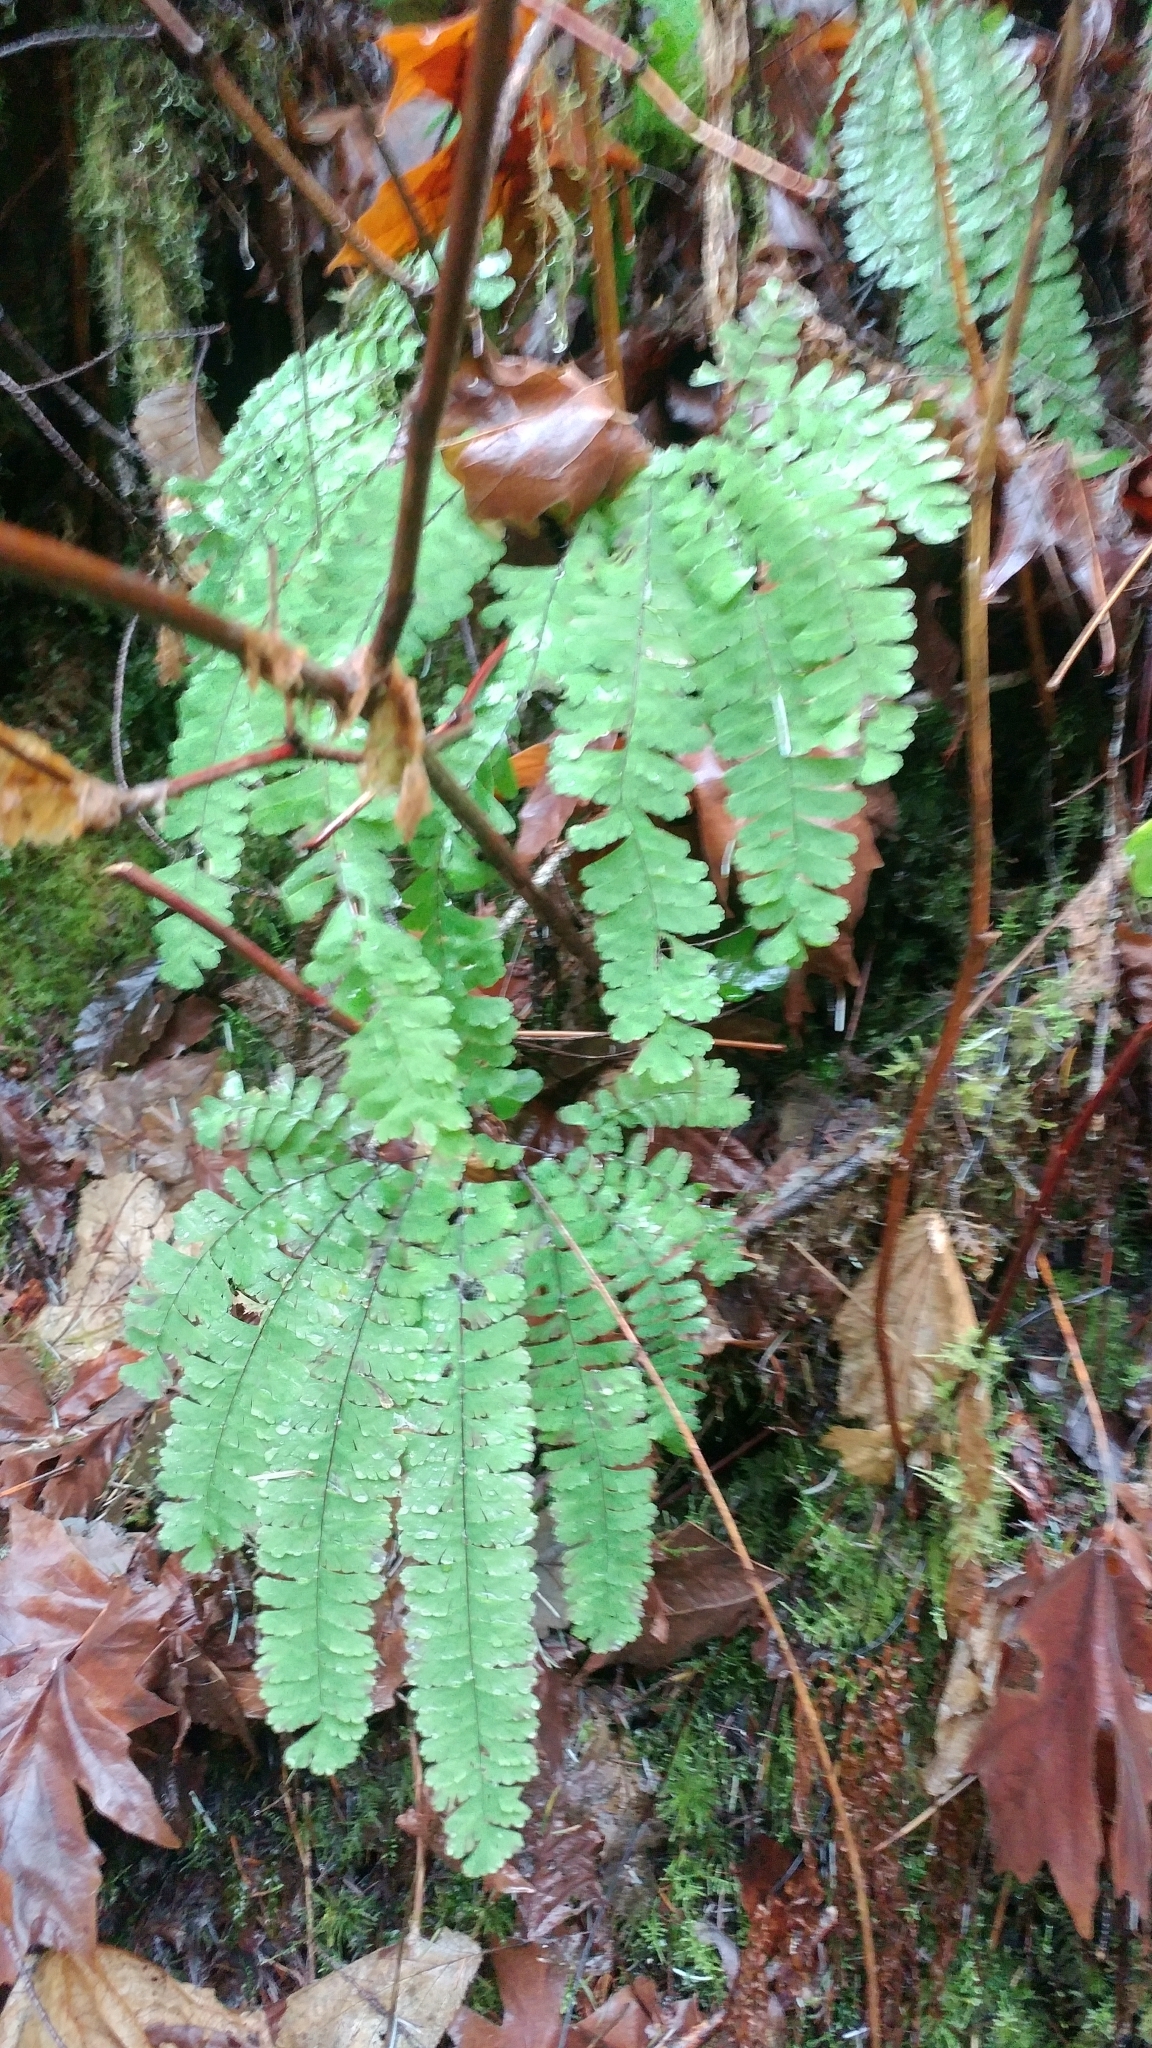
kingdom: Plantae
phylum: Tracheophyta
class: Polypodiopsida
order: Polypodiales
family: Pteridaceae
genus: Adiantum
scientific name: Adiantum aleuticum
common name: Aleutian maidenhair fern
